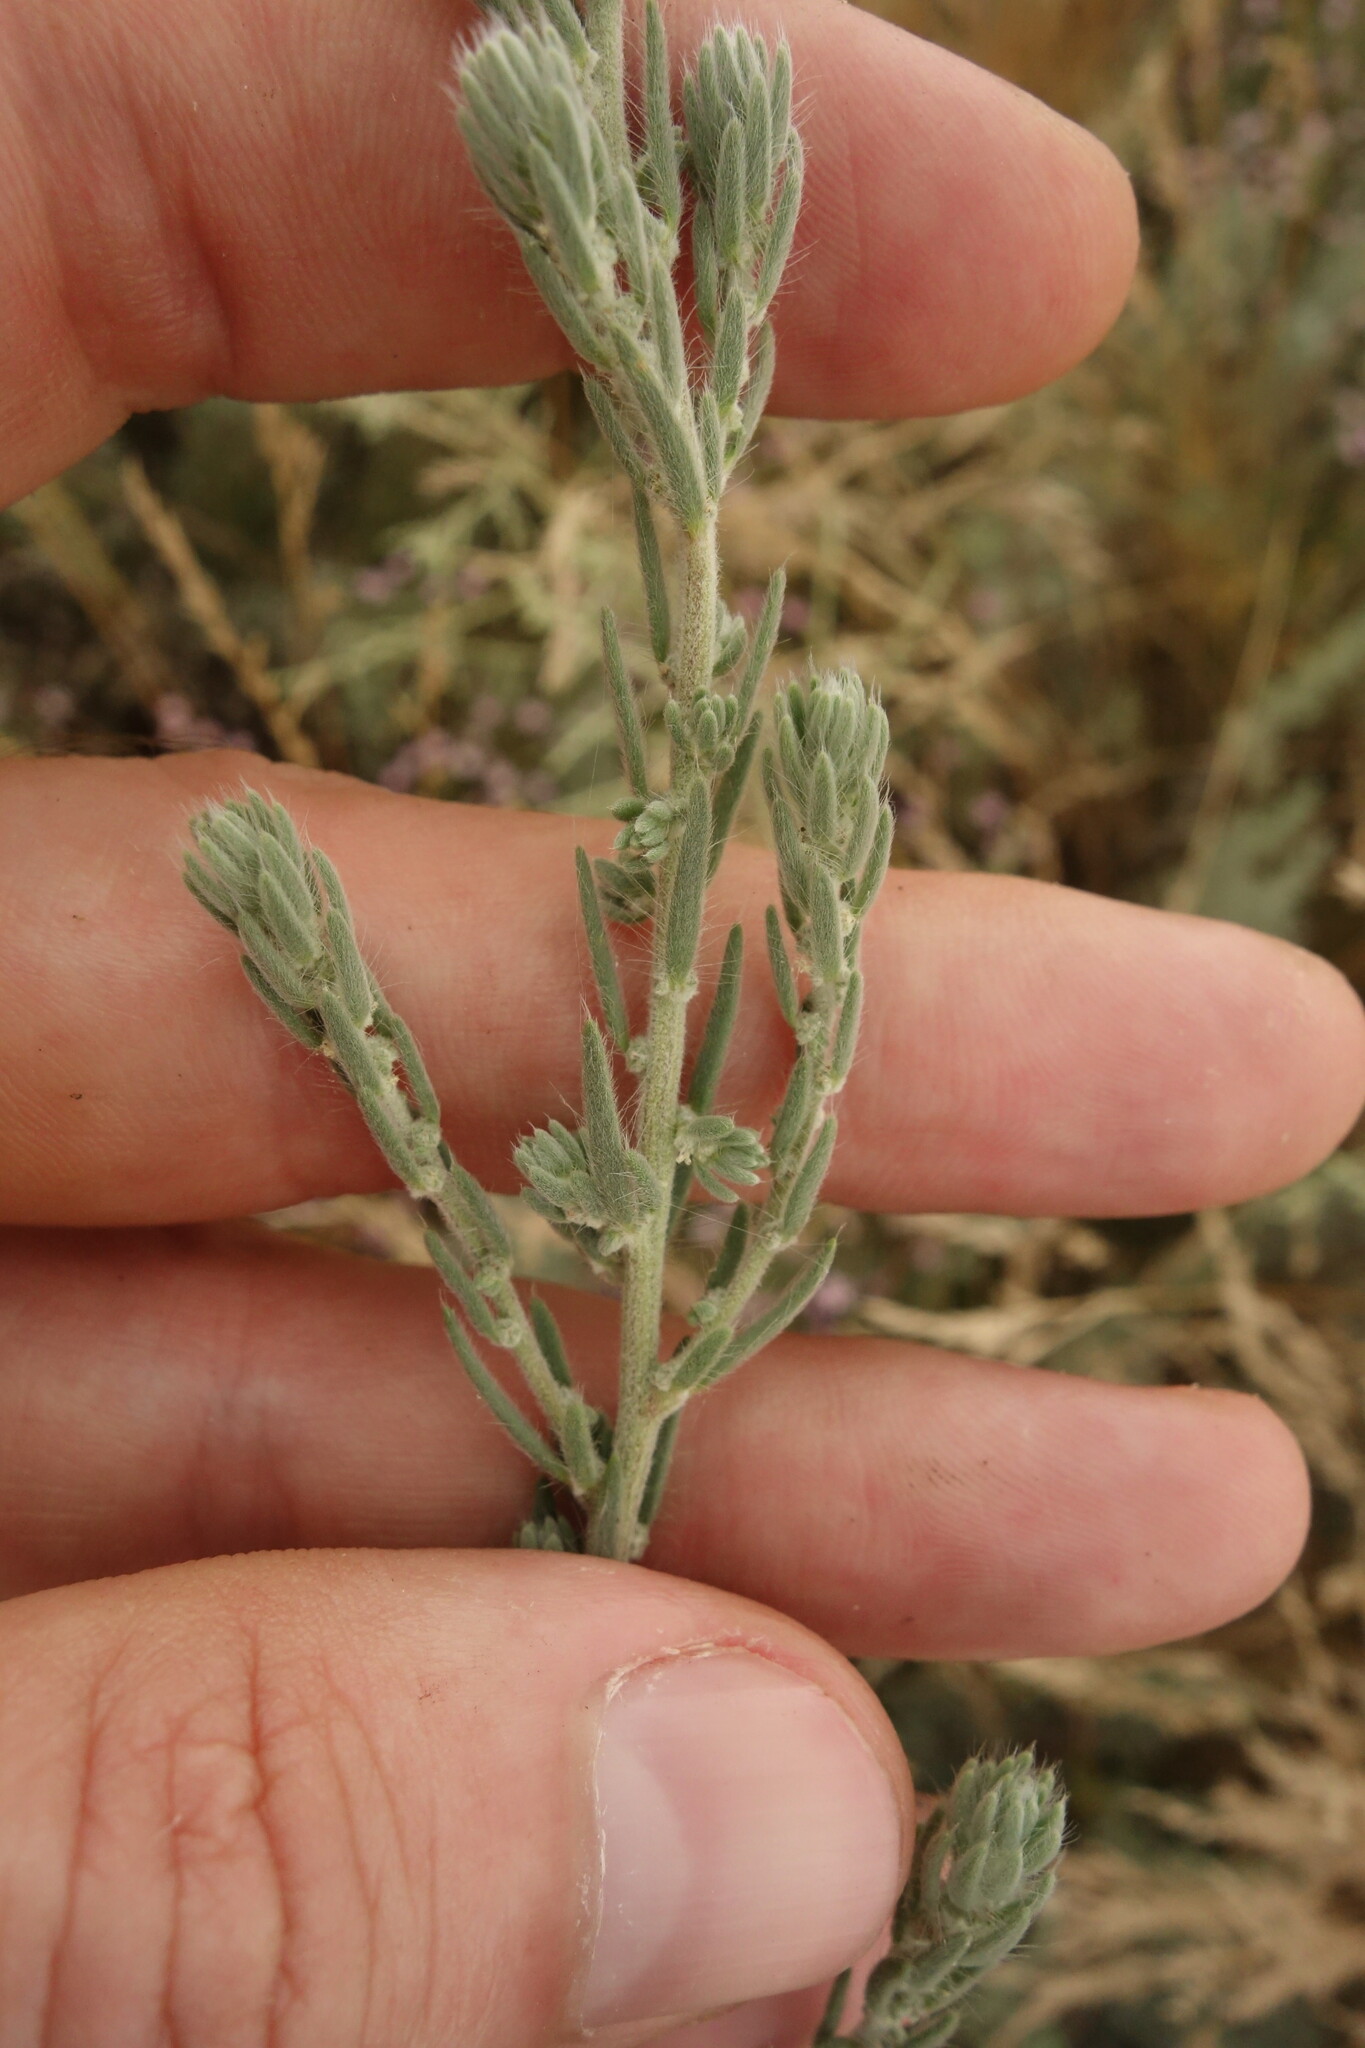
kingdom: Plantae
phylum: Tracheophyta
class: Magnoliopsida
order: Caryophyllales
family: Amaranthaceae
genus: Sedobassia
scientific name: Sedobassia sedoides
